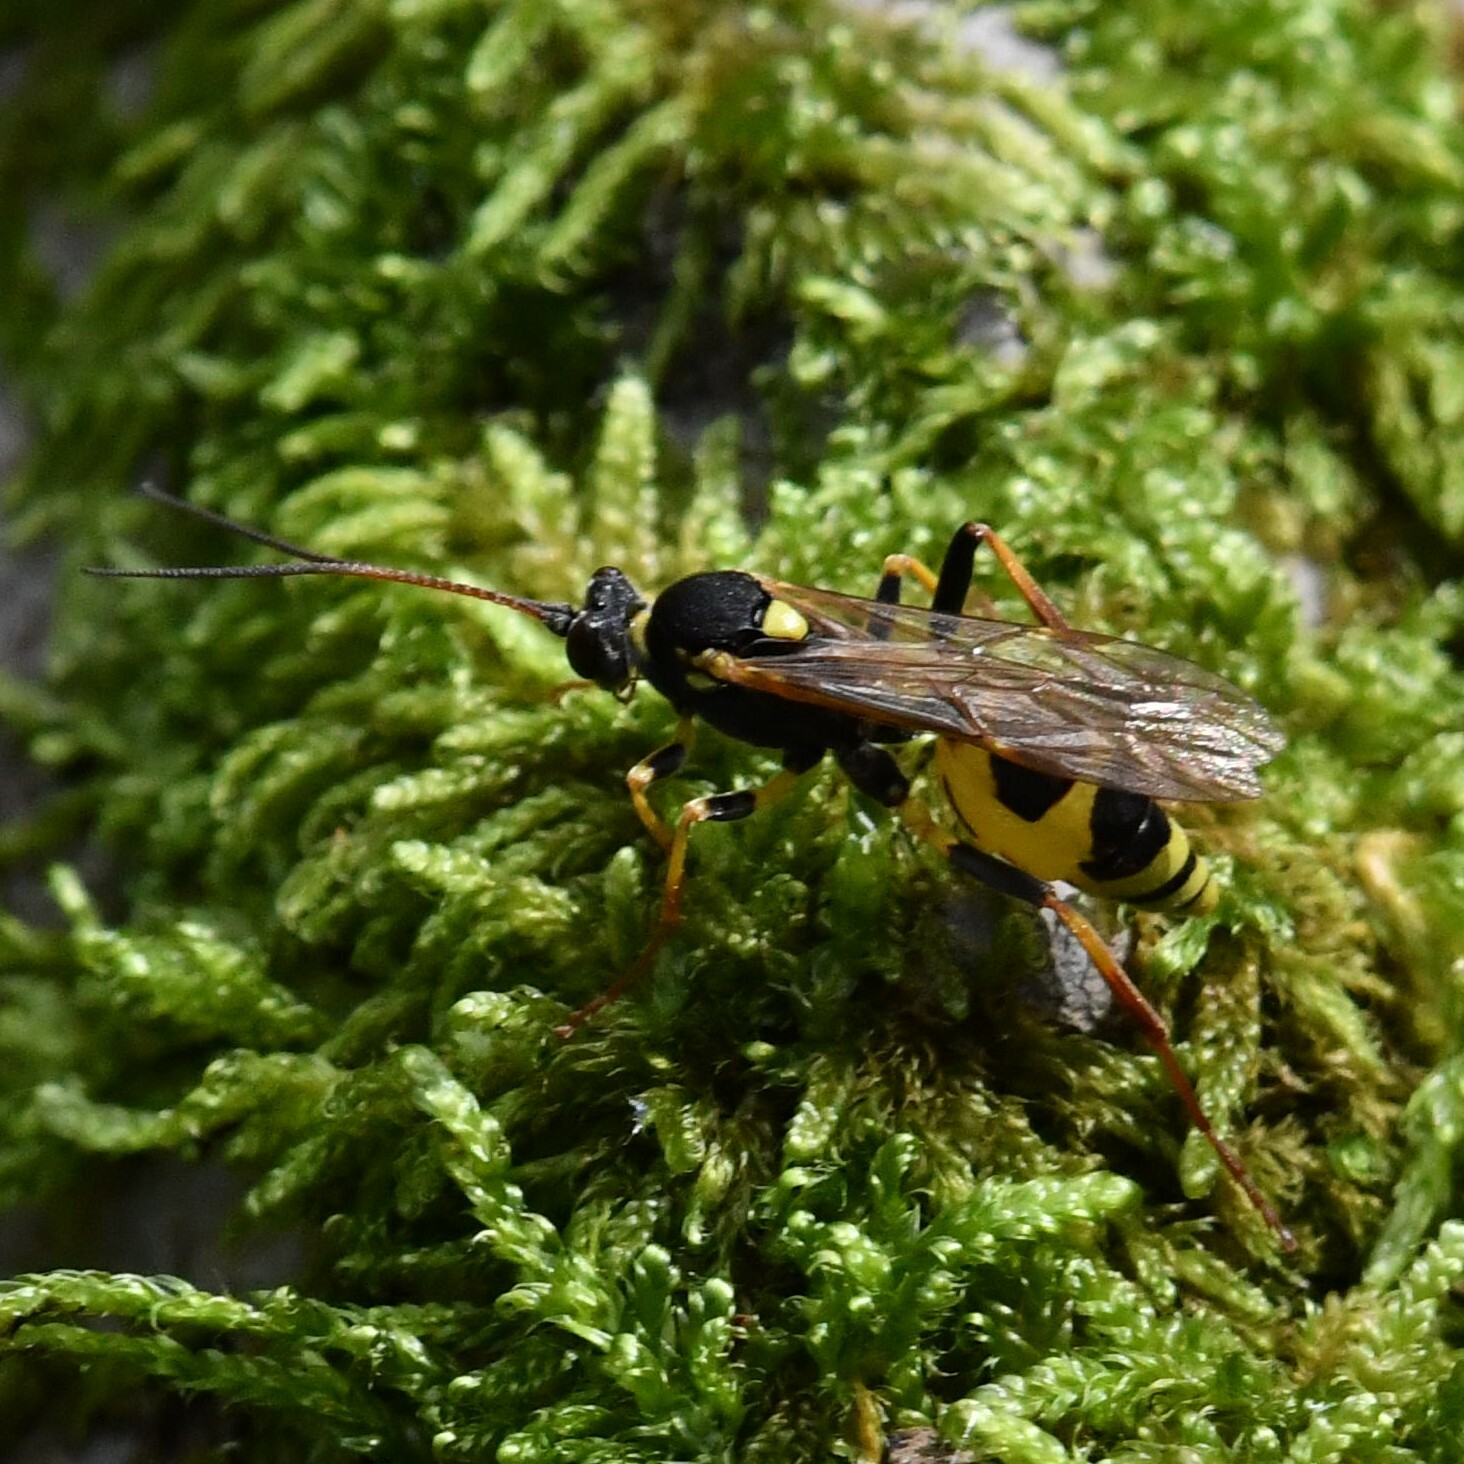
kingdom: Animalia
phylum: Arthropoda
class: Insecta
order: Hymenoptera
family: Ichneumonidae
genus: Amblyteles
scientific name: Amblyteles armatorius
